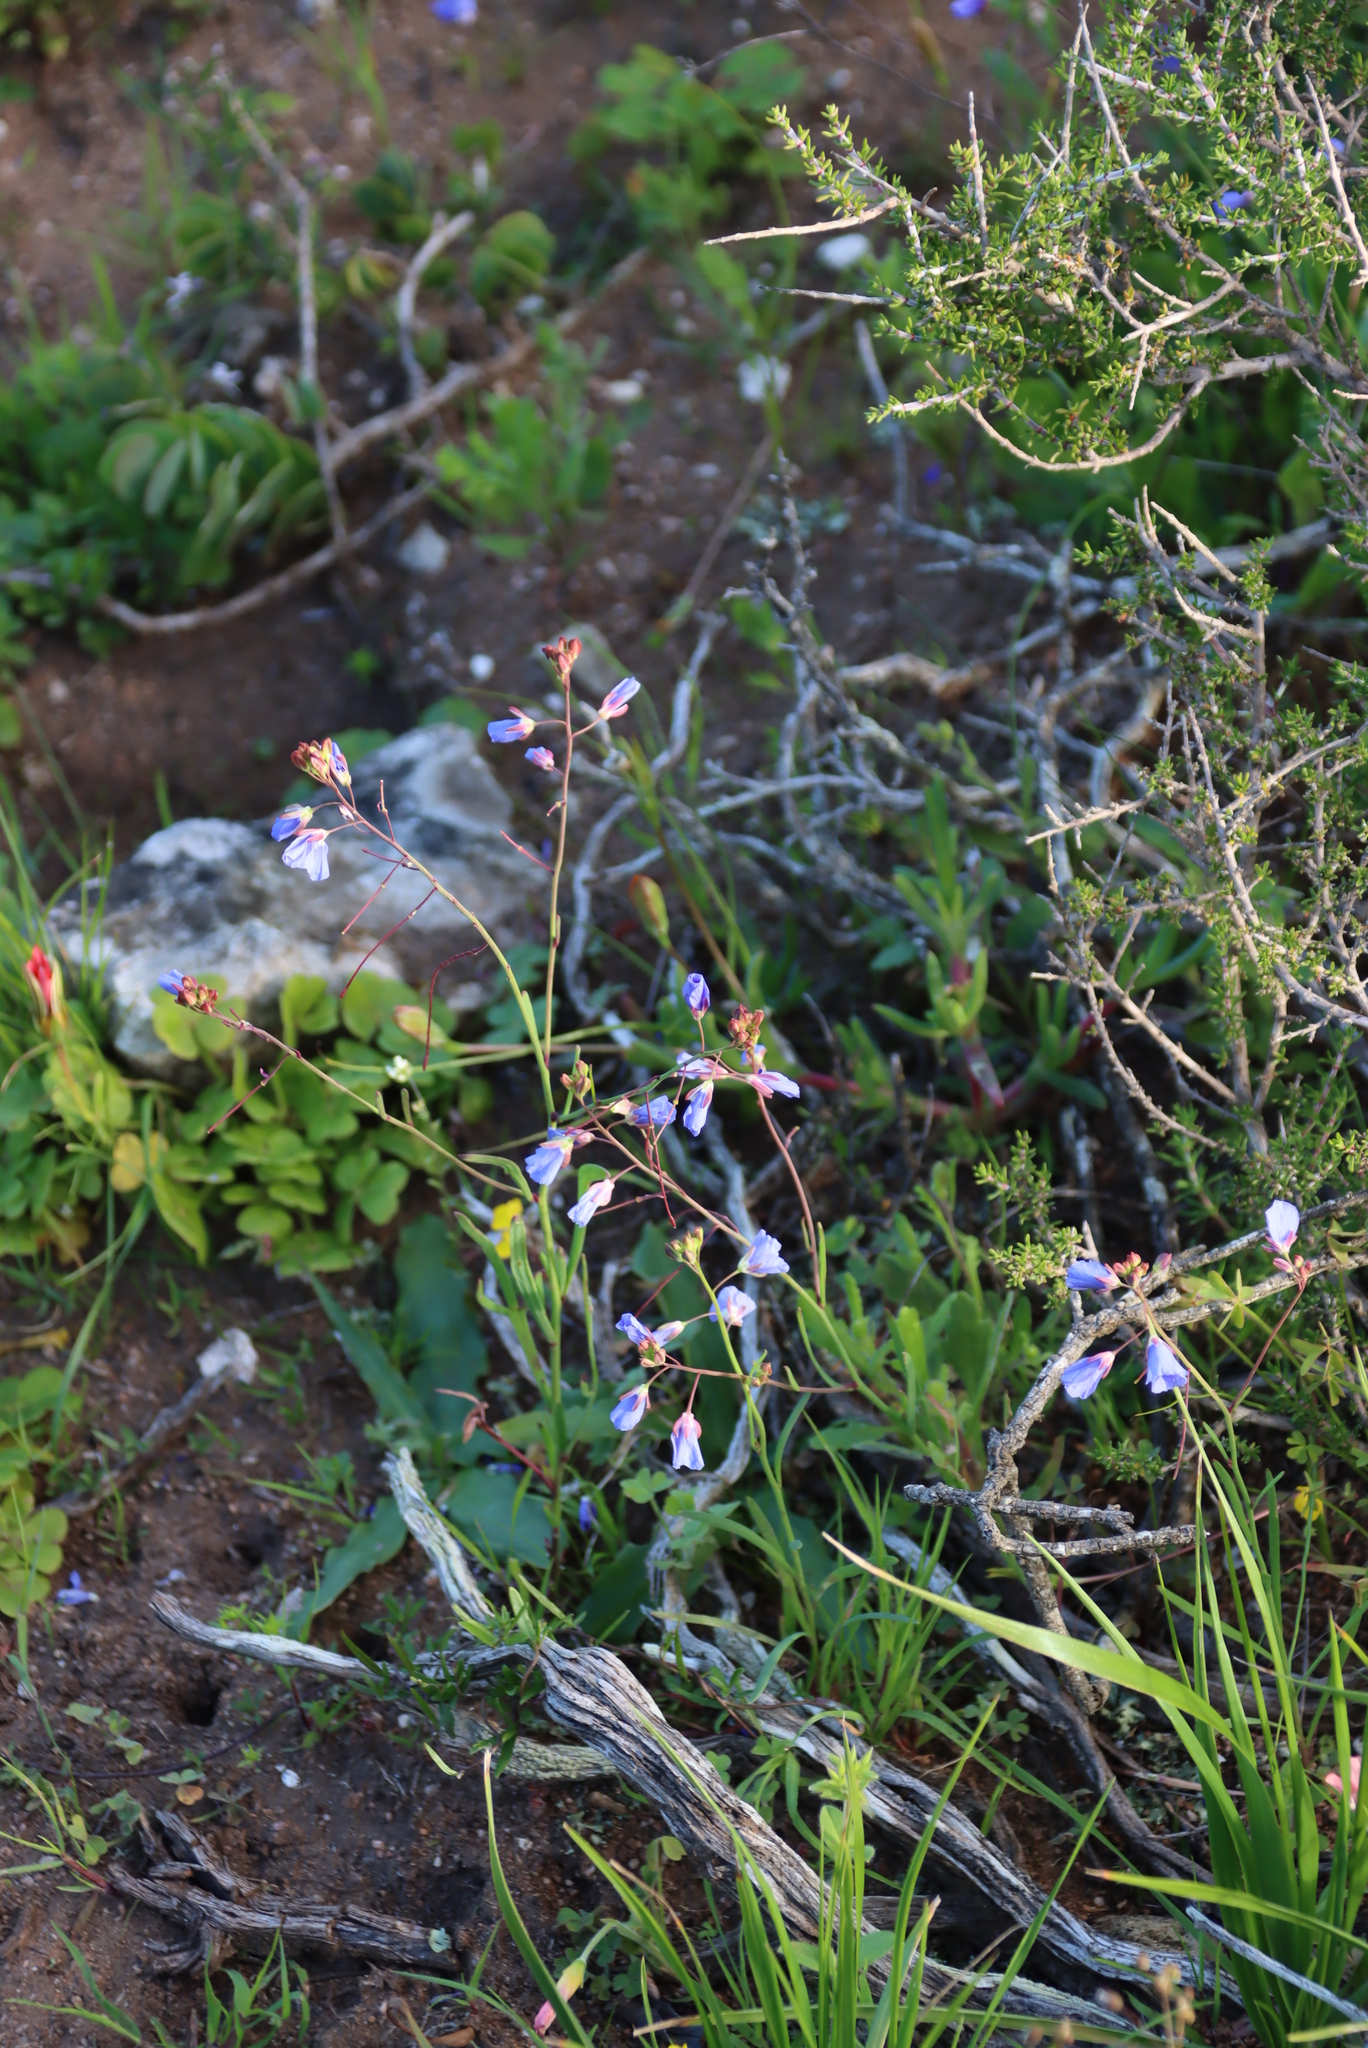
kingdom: Plantae
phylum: Tracheophyta
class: Magnoliopsida
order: Brassicales
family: Brassicaceae
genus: Heliophila
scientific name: Heliophila coronopifolia
